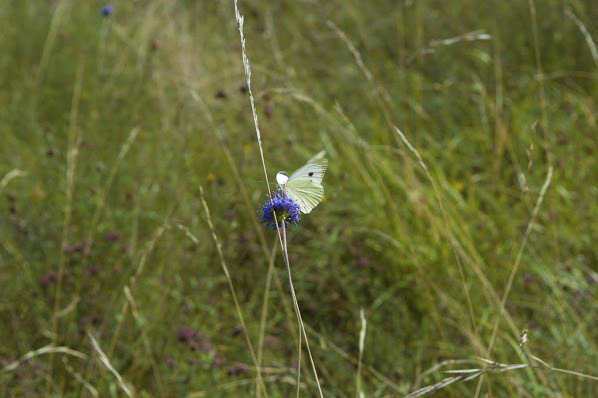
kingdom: Animalia
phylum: Arthropoda
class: Insecta
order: Lepidoptera
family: Pieridae
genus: Pieris
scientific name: Pieris brassicae
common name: Large white
